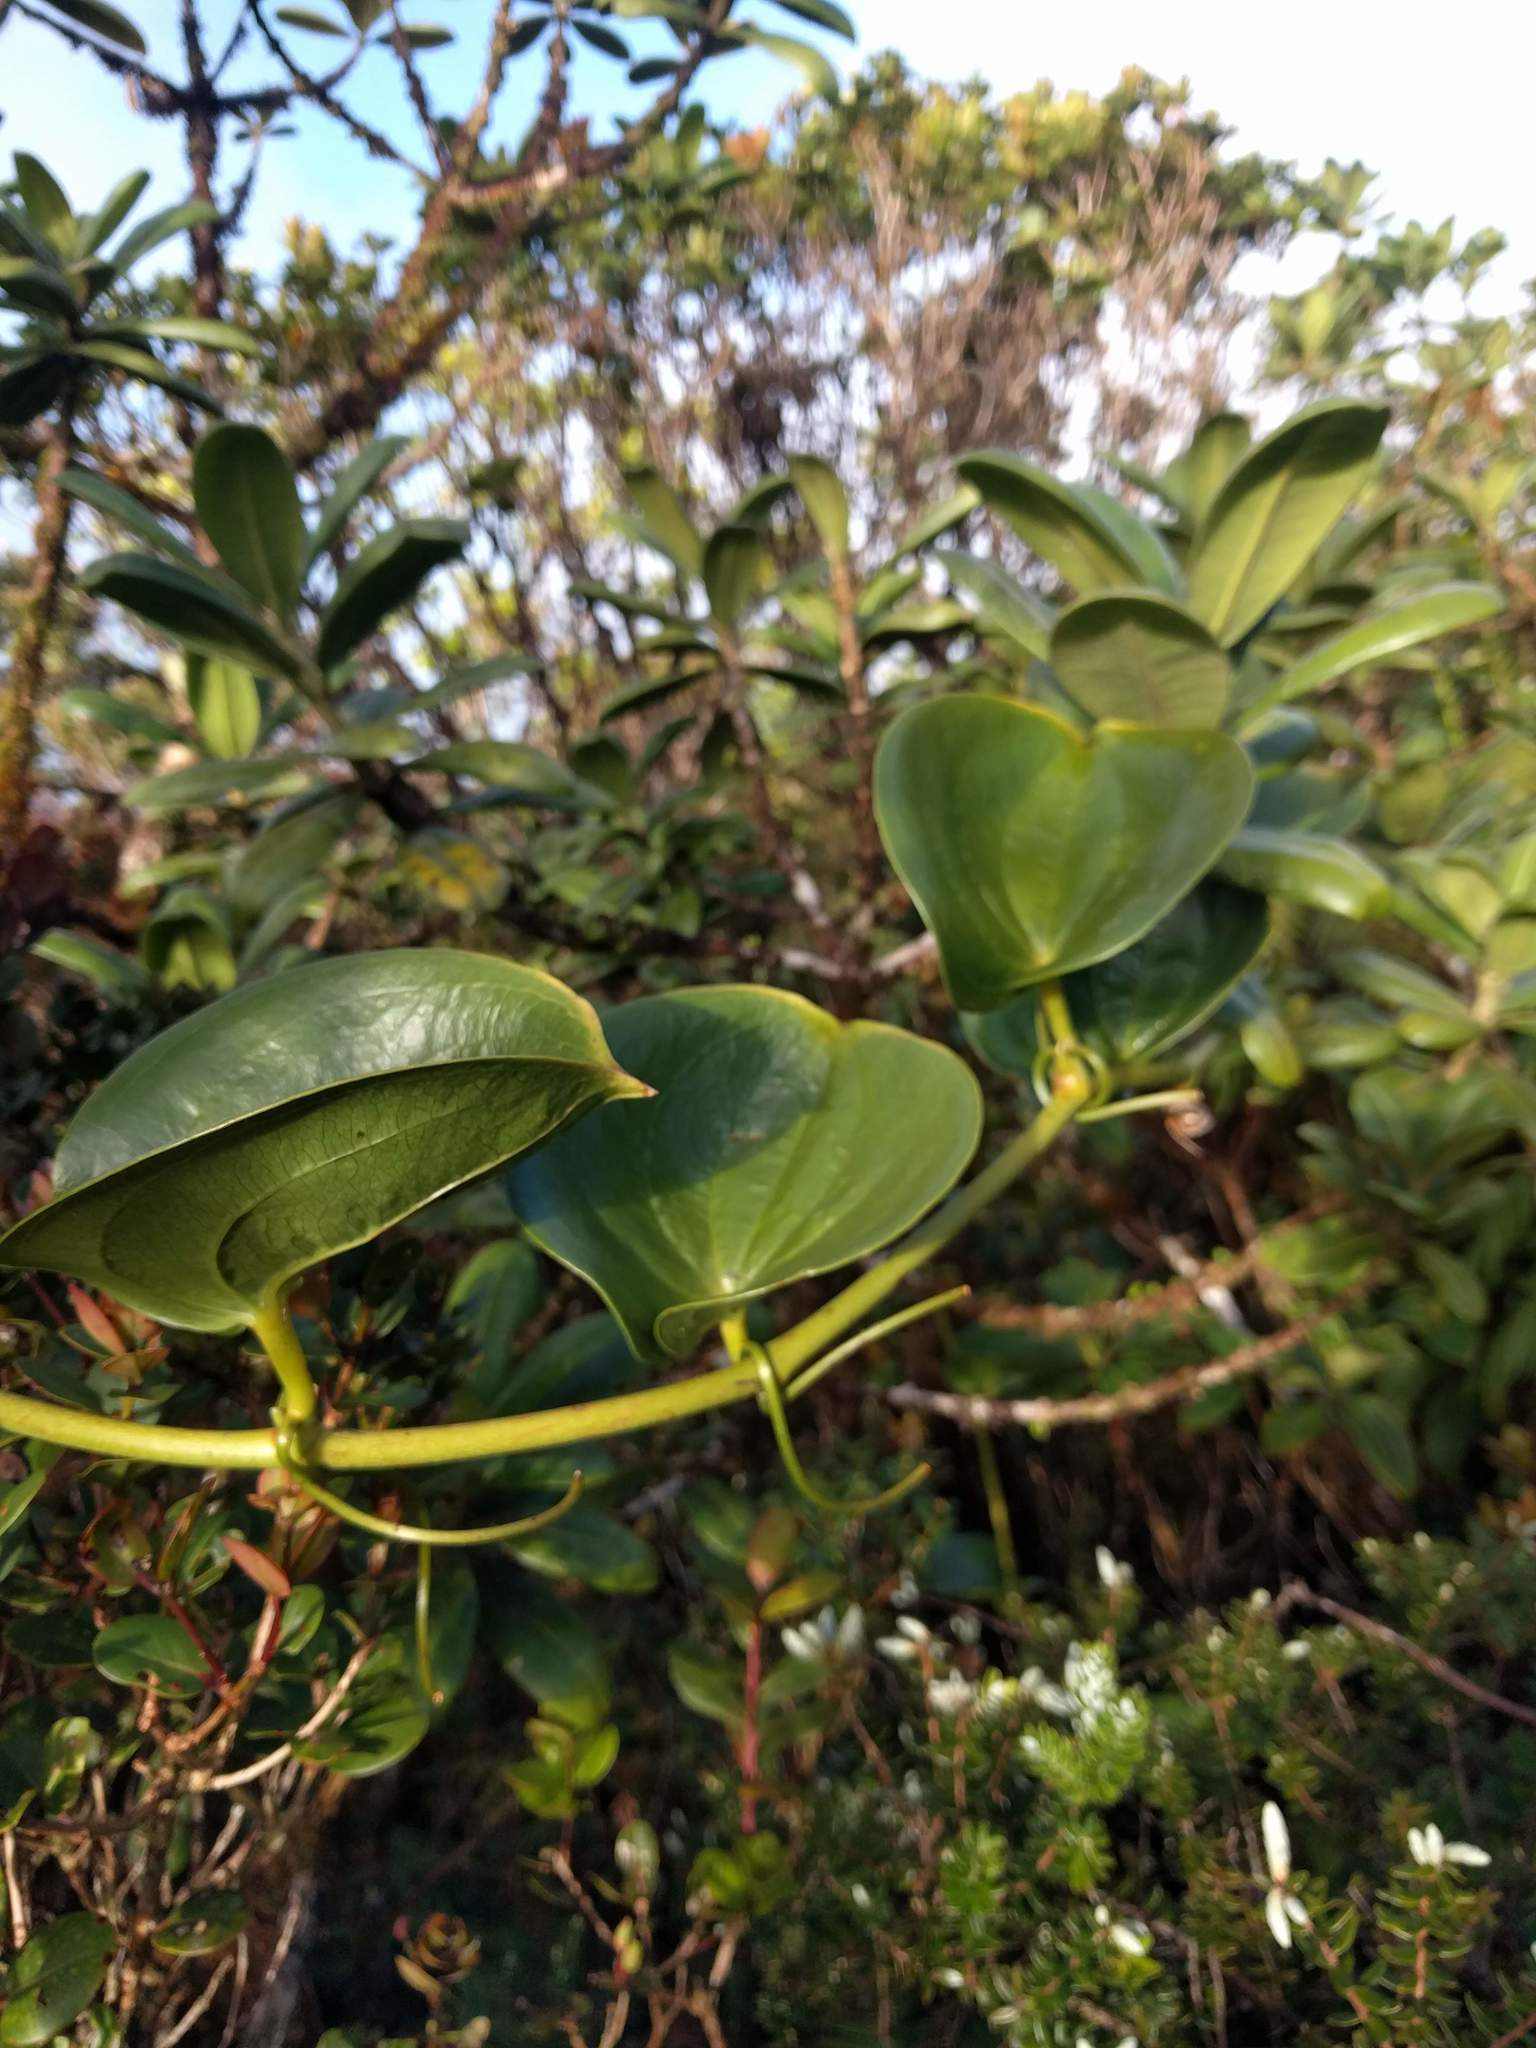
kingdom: Plantae
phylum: Tracheophyta
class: Liliopsida
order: Liliales
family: Smilacaceae
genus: Smilax
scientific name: Smilax melastomifolia
